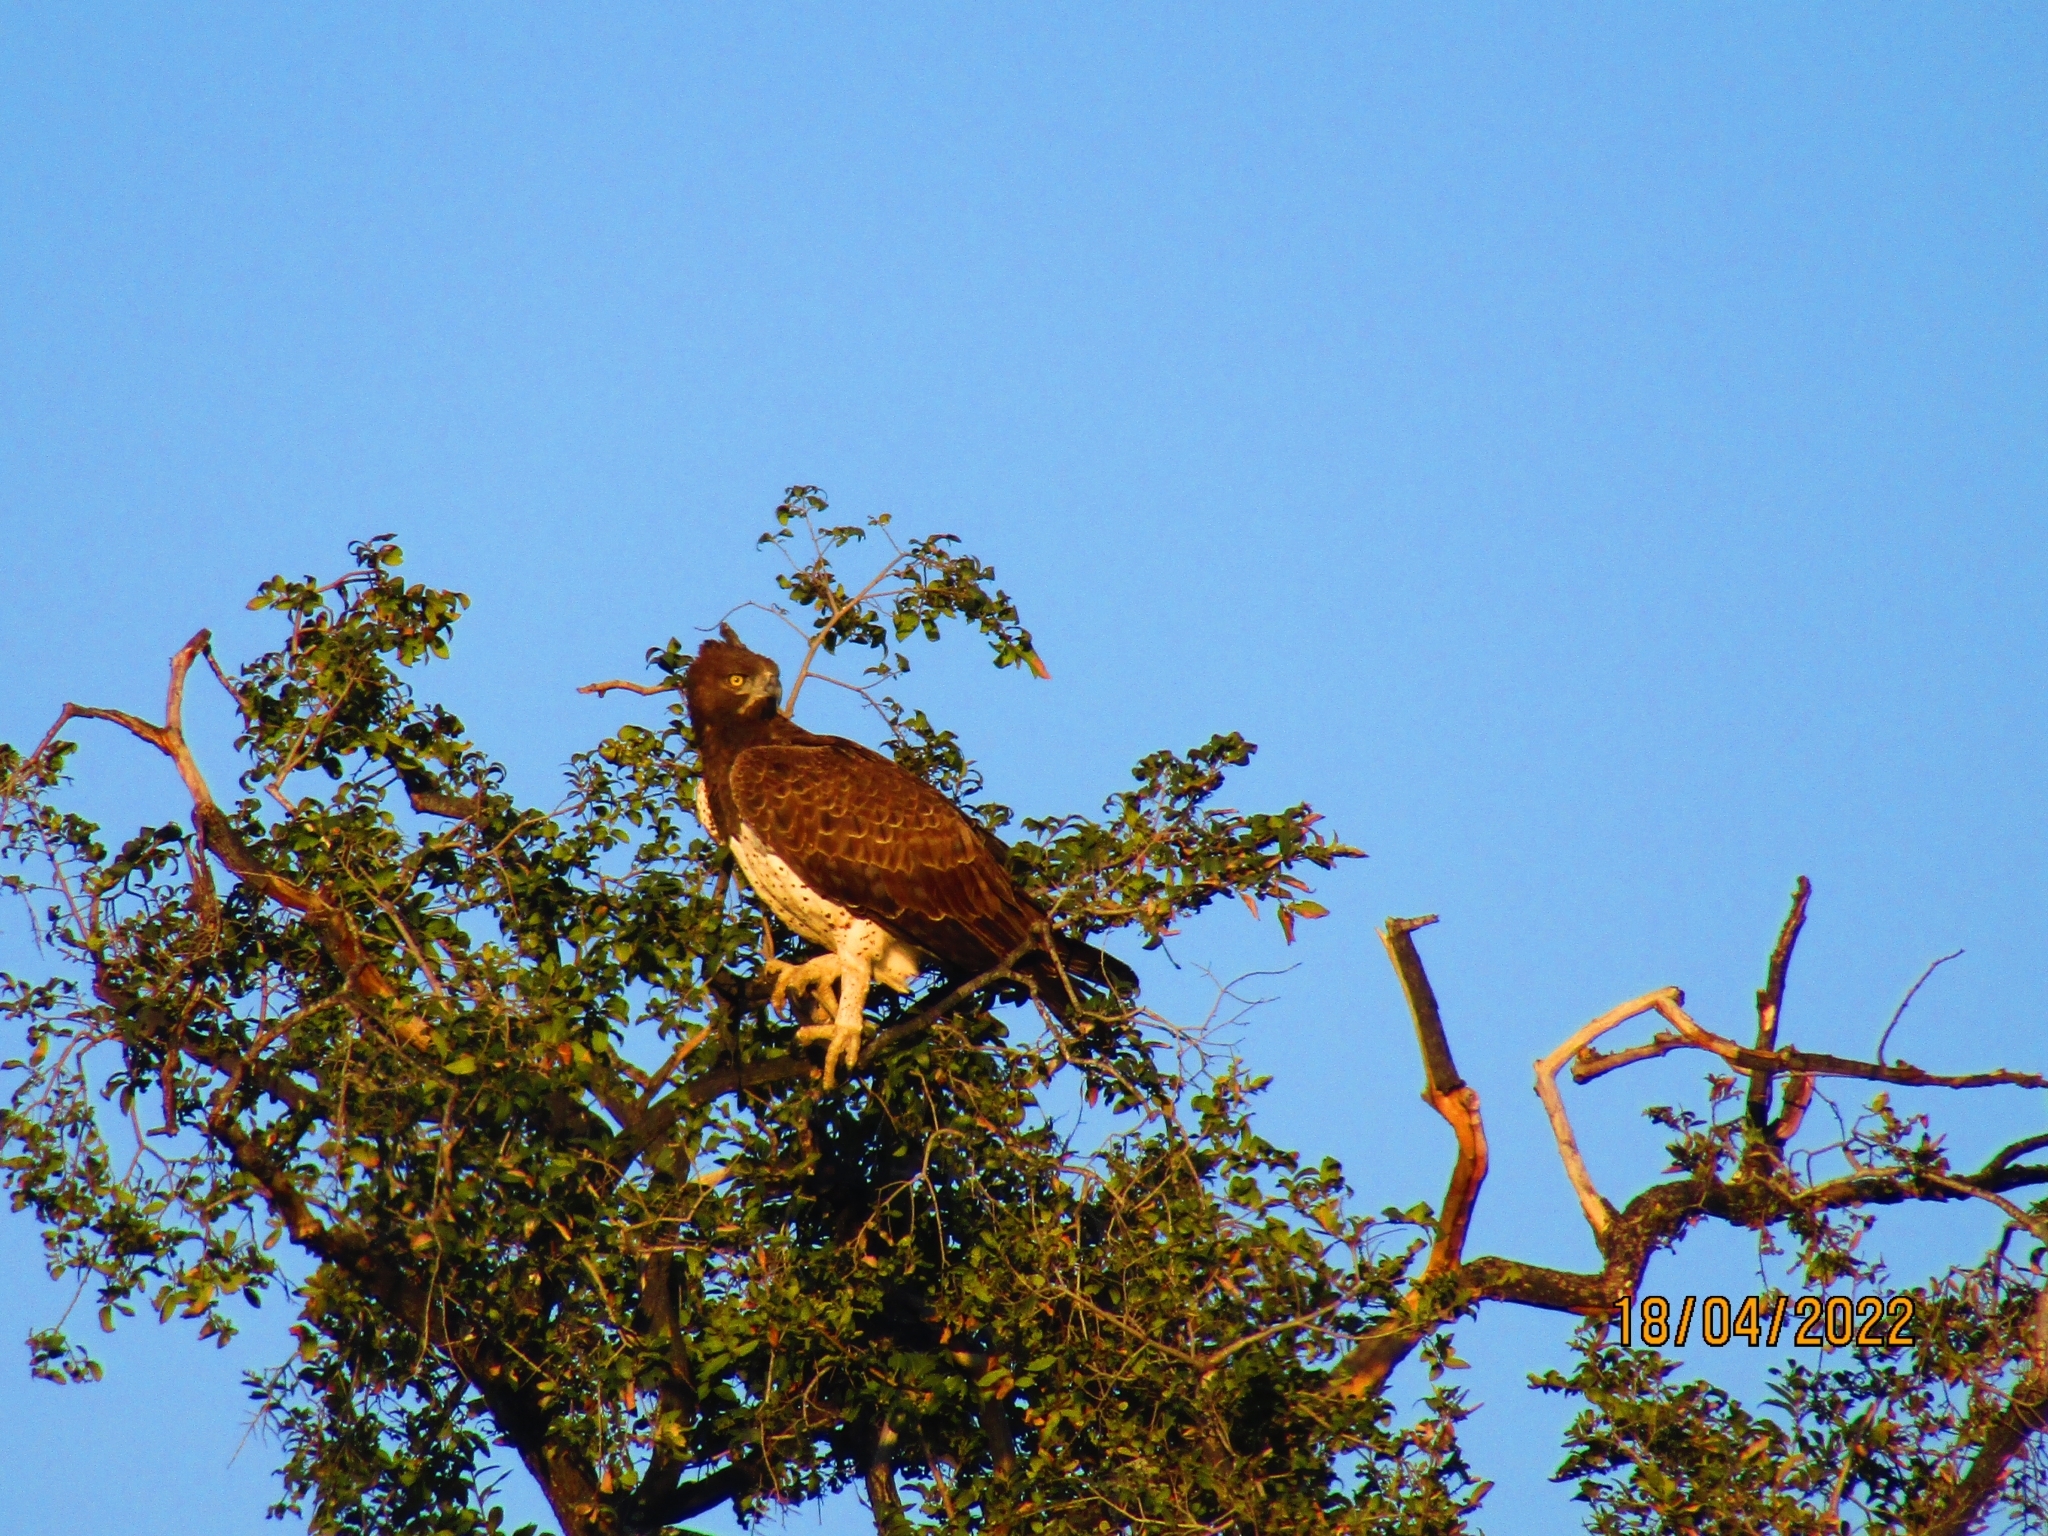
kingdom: Animalia
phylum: Chordata
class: Aves
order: Accipitriformes
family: Accipitridae
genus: Polemaetus
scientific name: Polemaetus bellicosus
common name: Martial eagle
